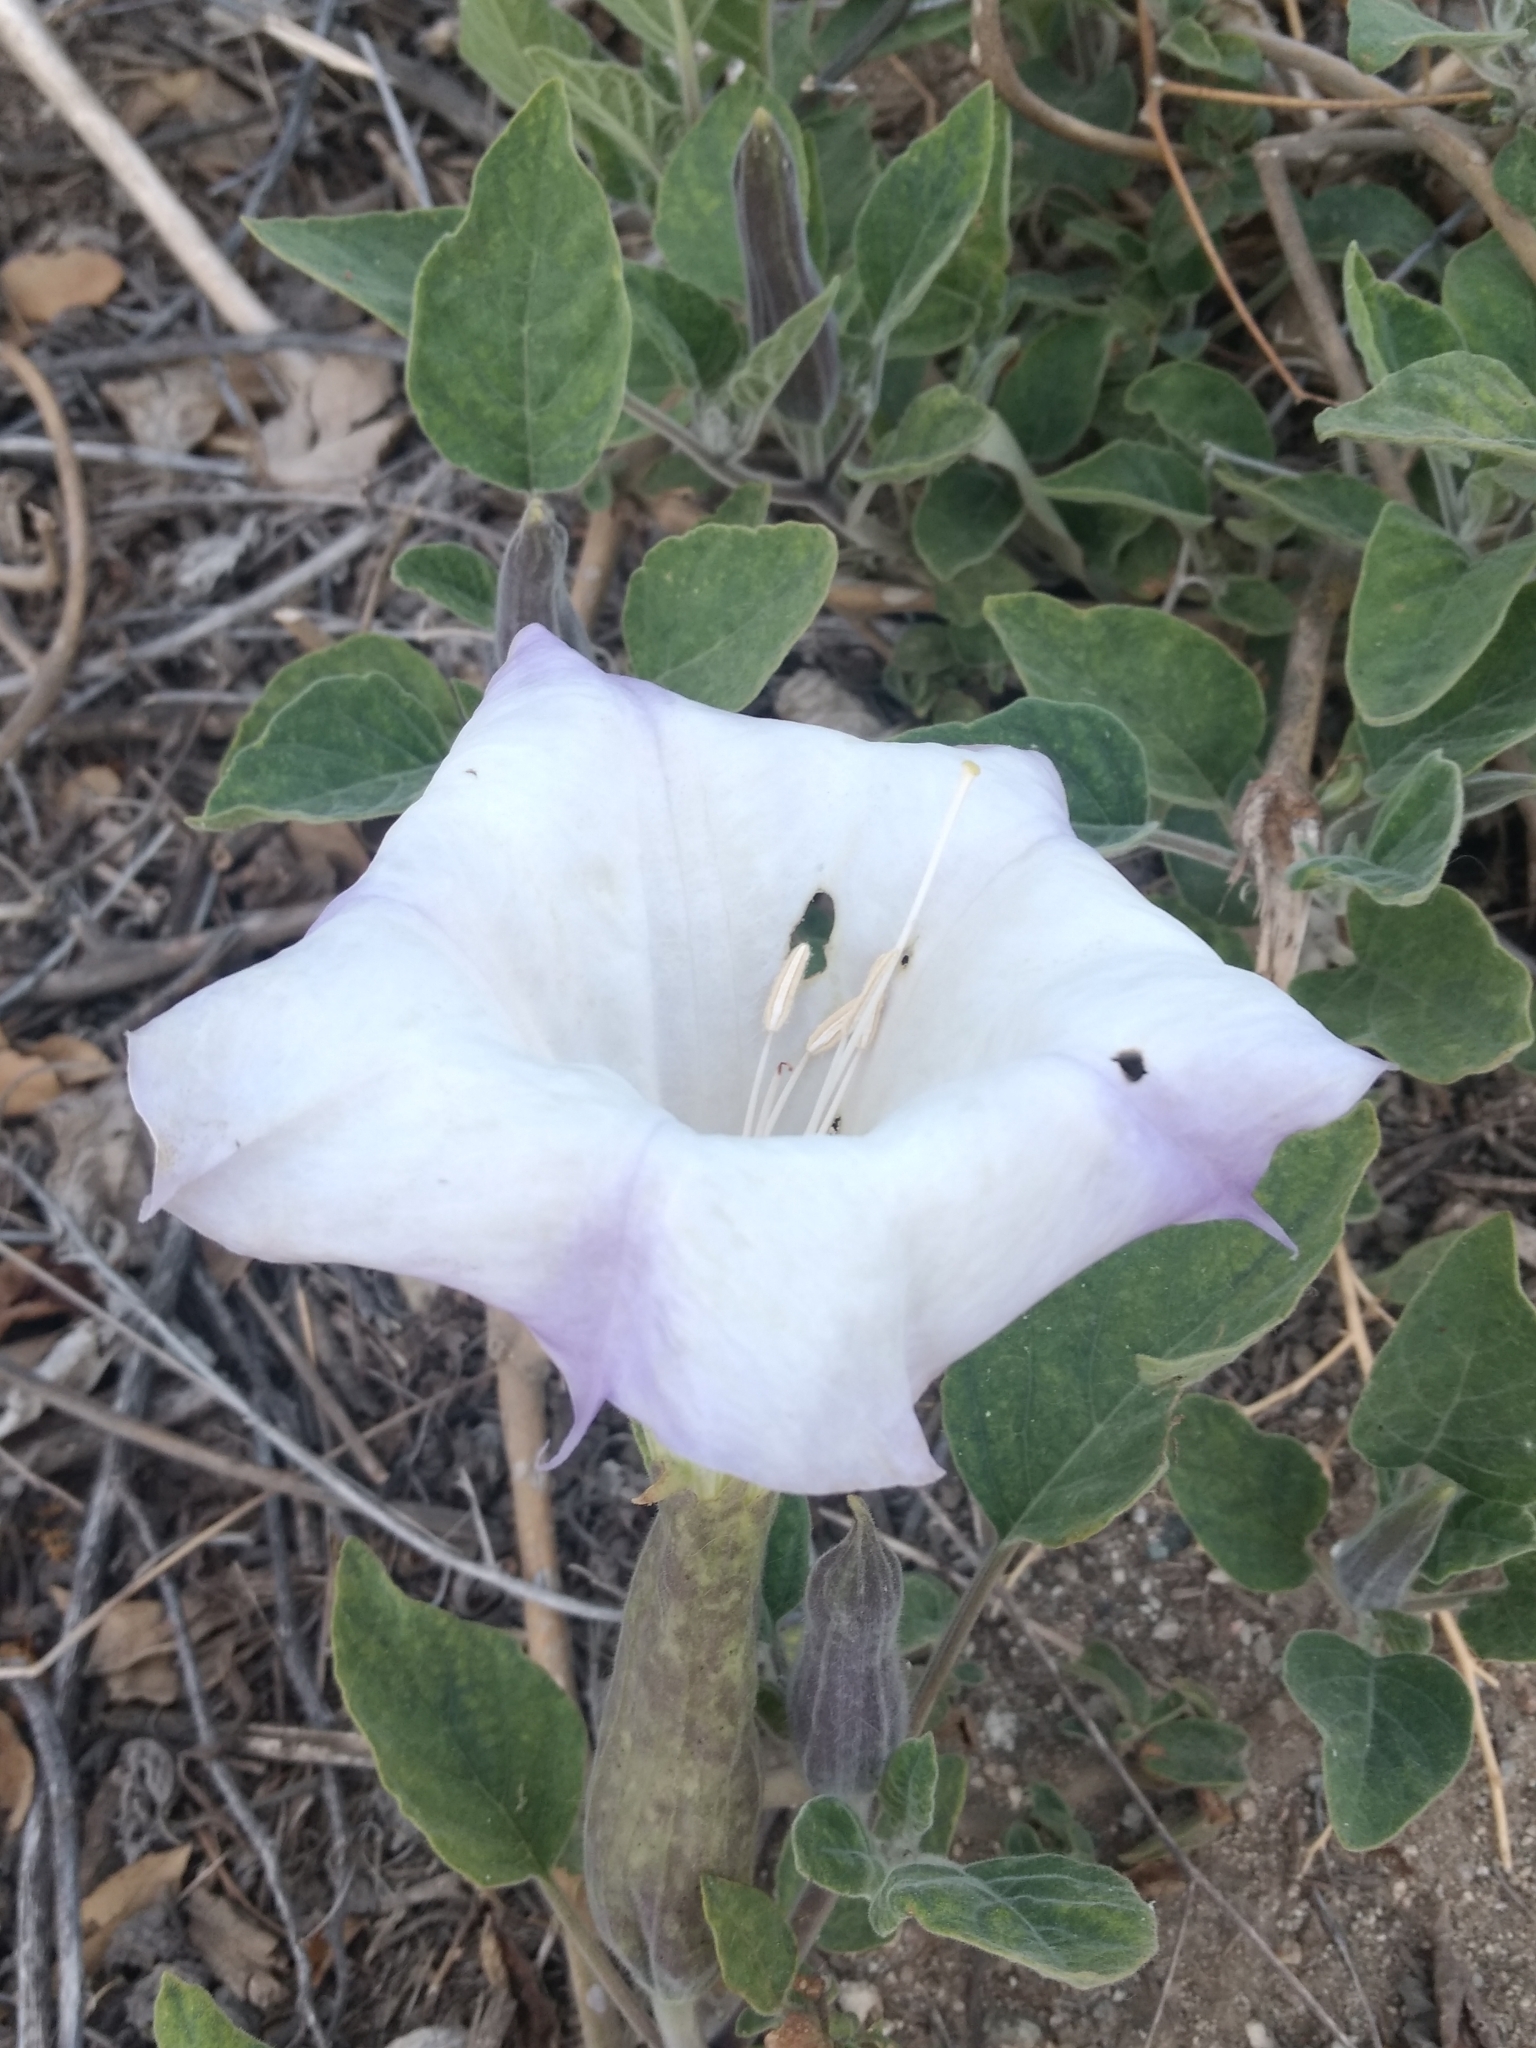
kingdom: Plantae
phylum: Tracheophyta
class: Magnoliopsida
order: Solanales
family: Solanaceae
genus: Datura
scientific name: Datura wrightii
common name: Sacred thorn-apple
